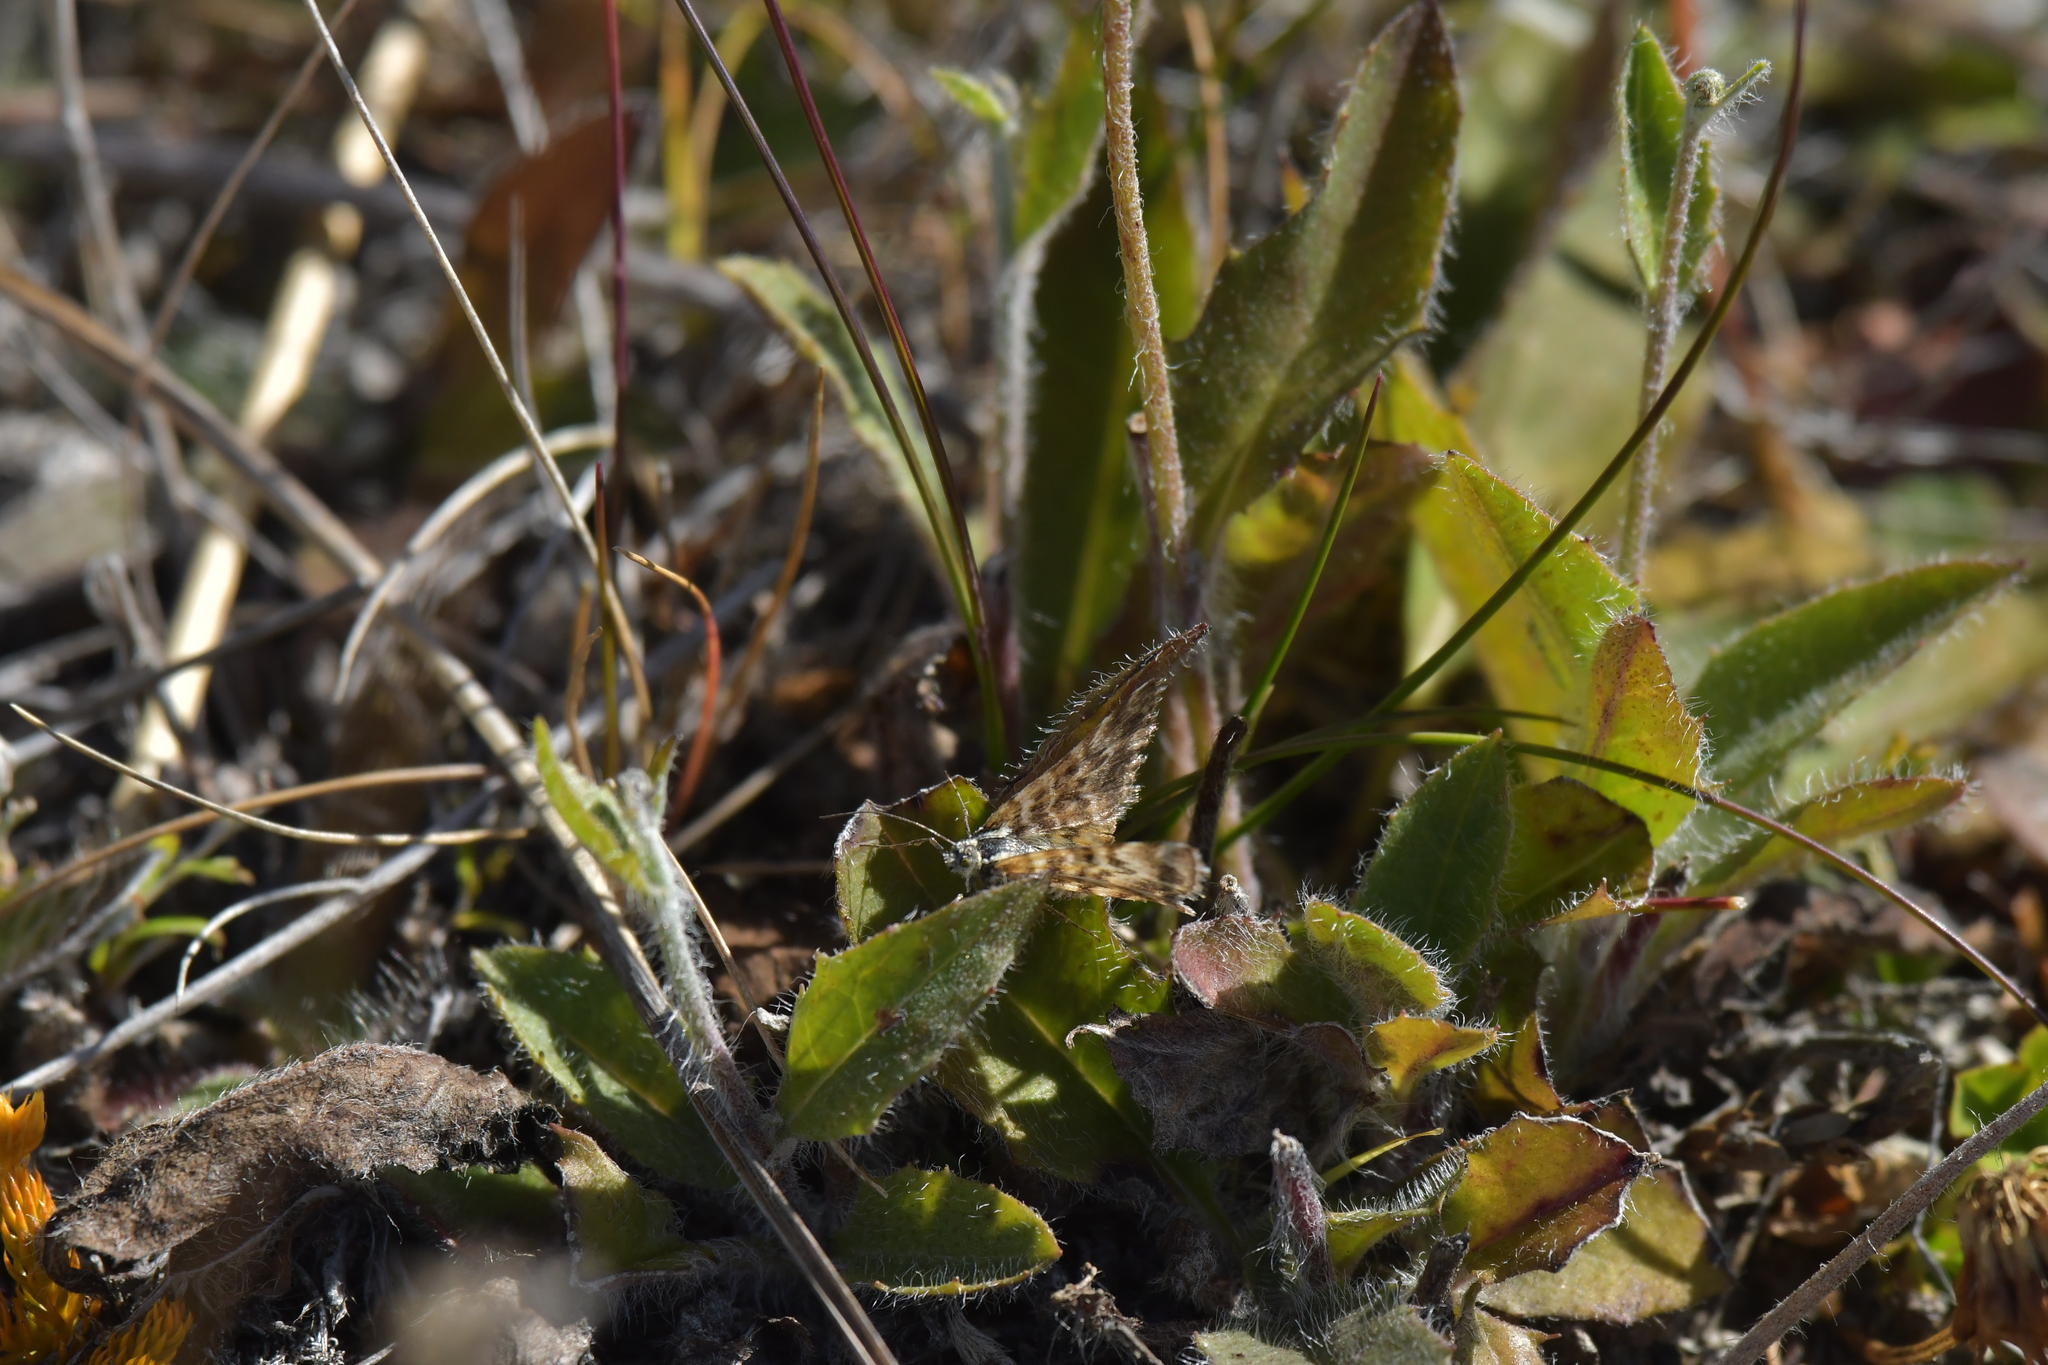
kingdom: Animalia
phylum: Arthropoda
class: Insecta
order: Lepidoptera
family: Geometridae
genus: Notoreas
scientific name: Notoreas
